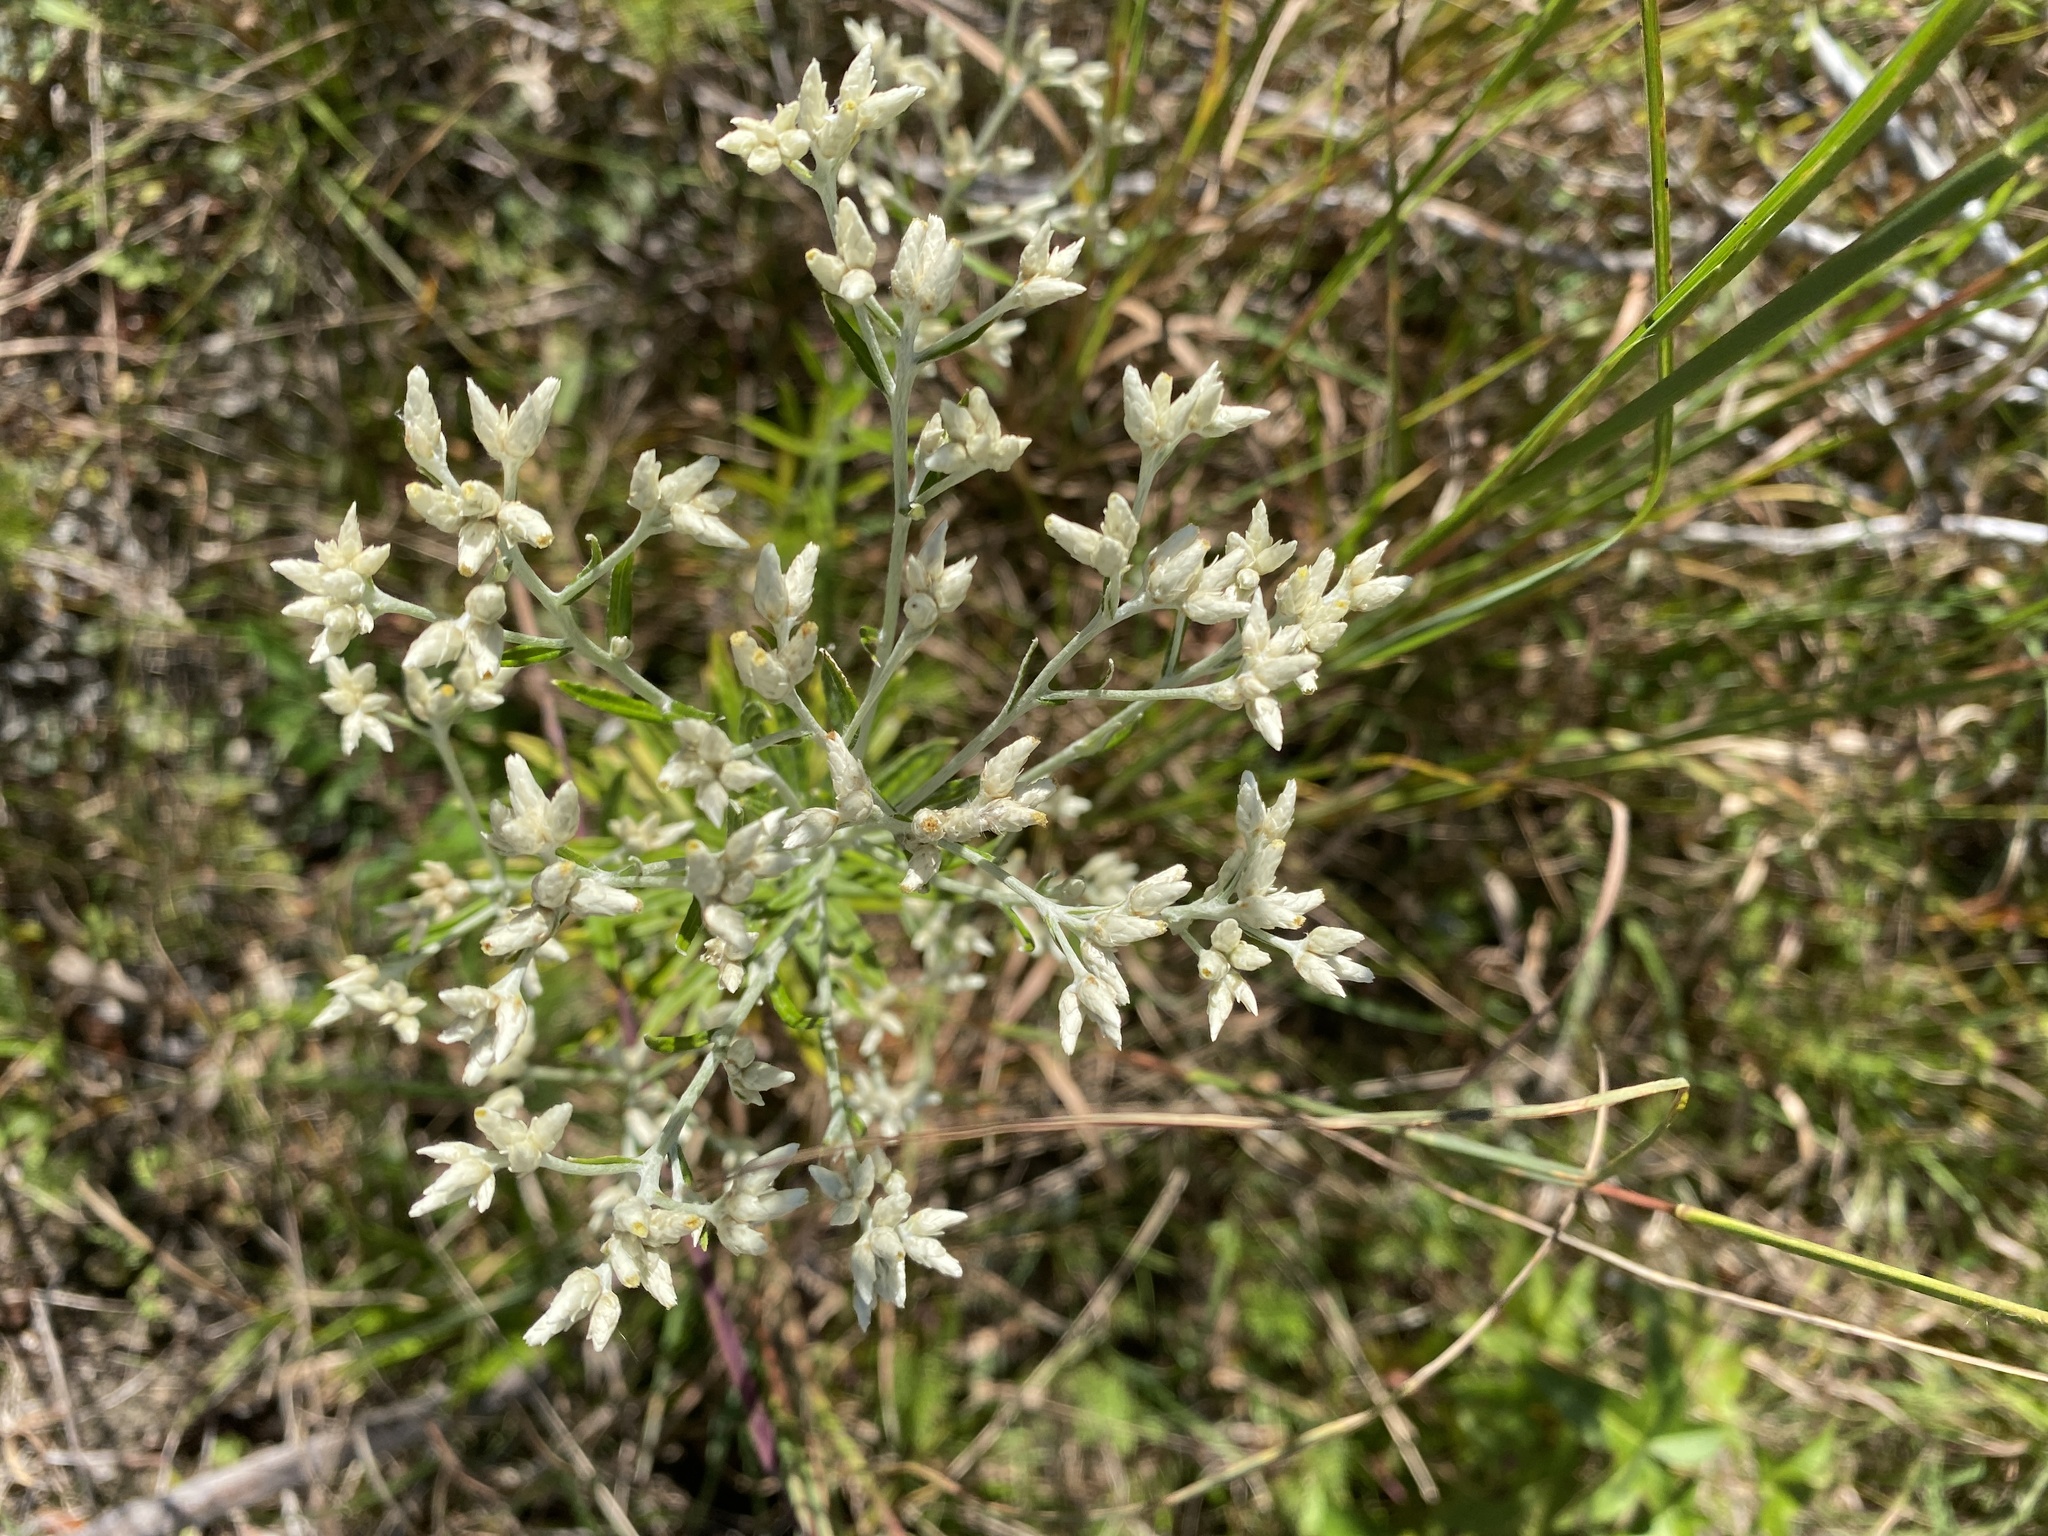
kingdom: Plantae
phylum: Tracheophyta
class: Magnoliopsida
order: Asterales
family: Asteraceae
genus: Pseudognaphalium
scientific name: Pseudognaphalium obtusifolium
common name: Eastern rabbit-tobacco
